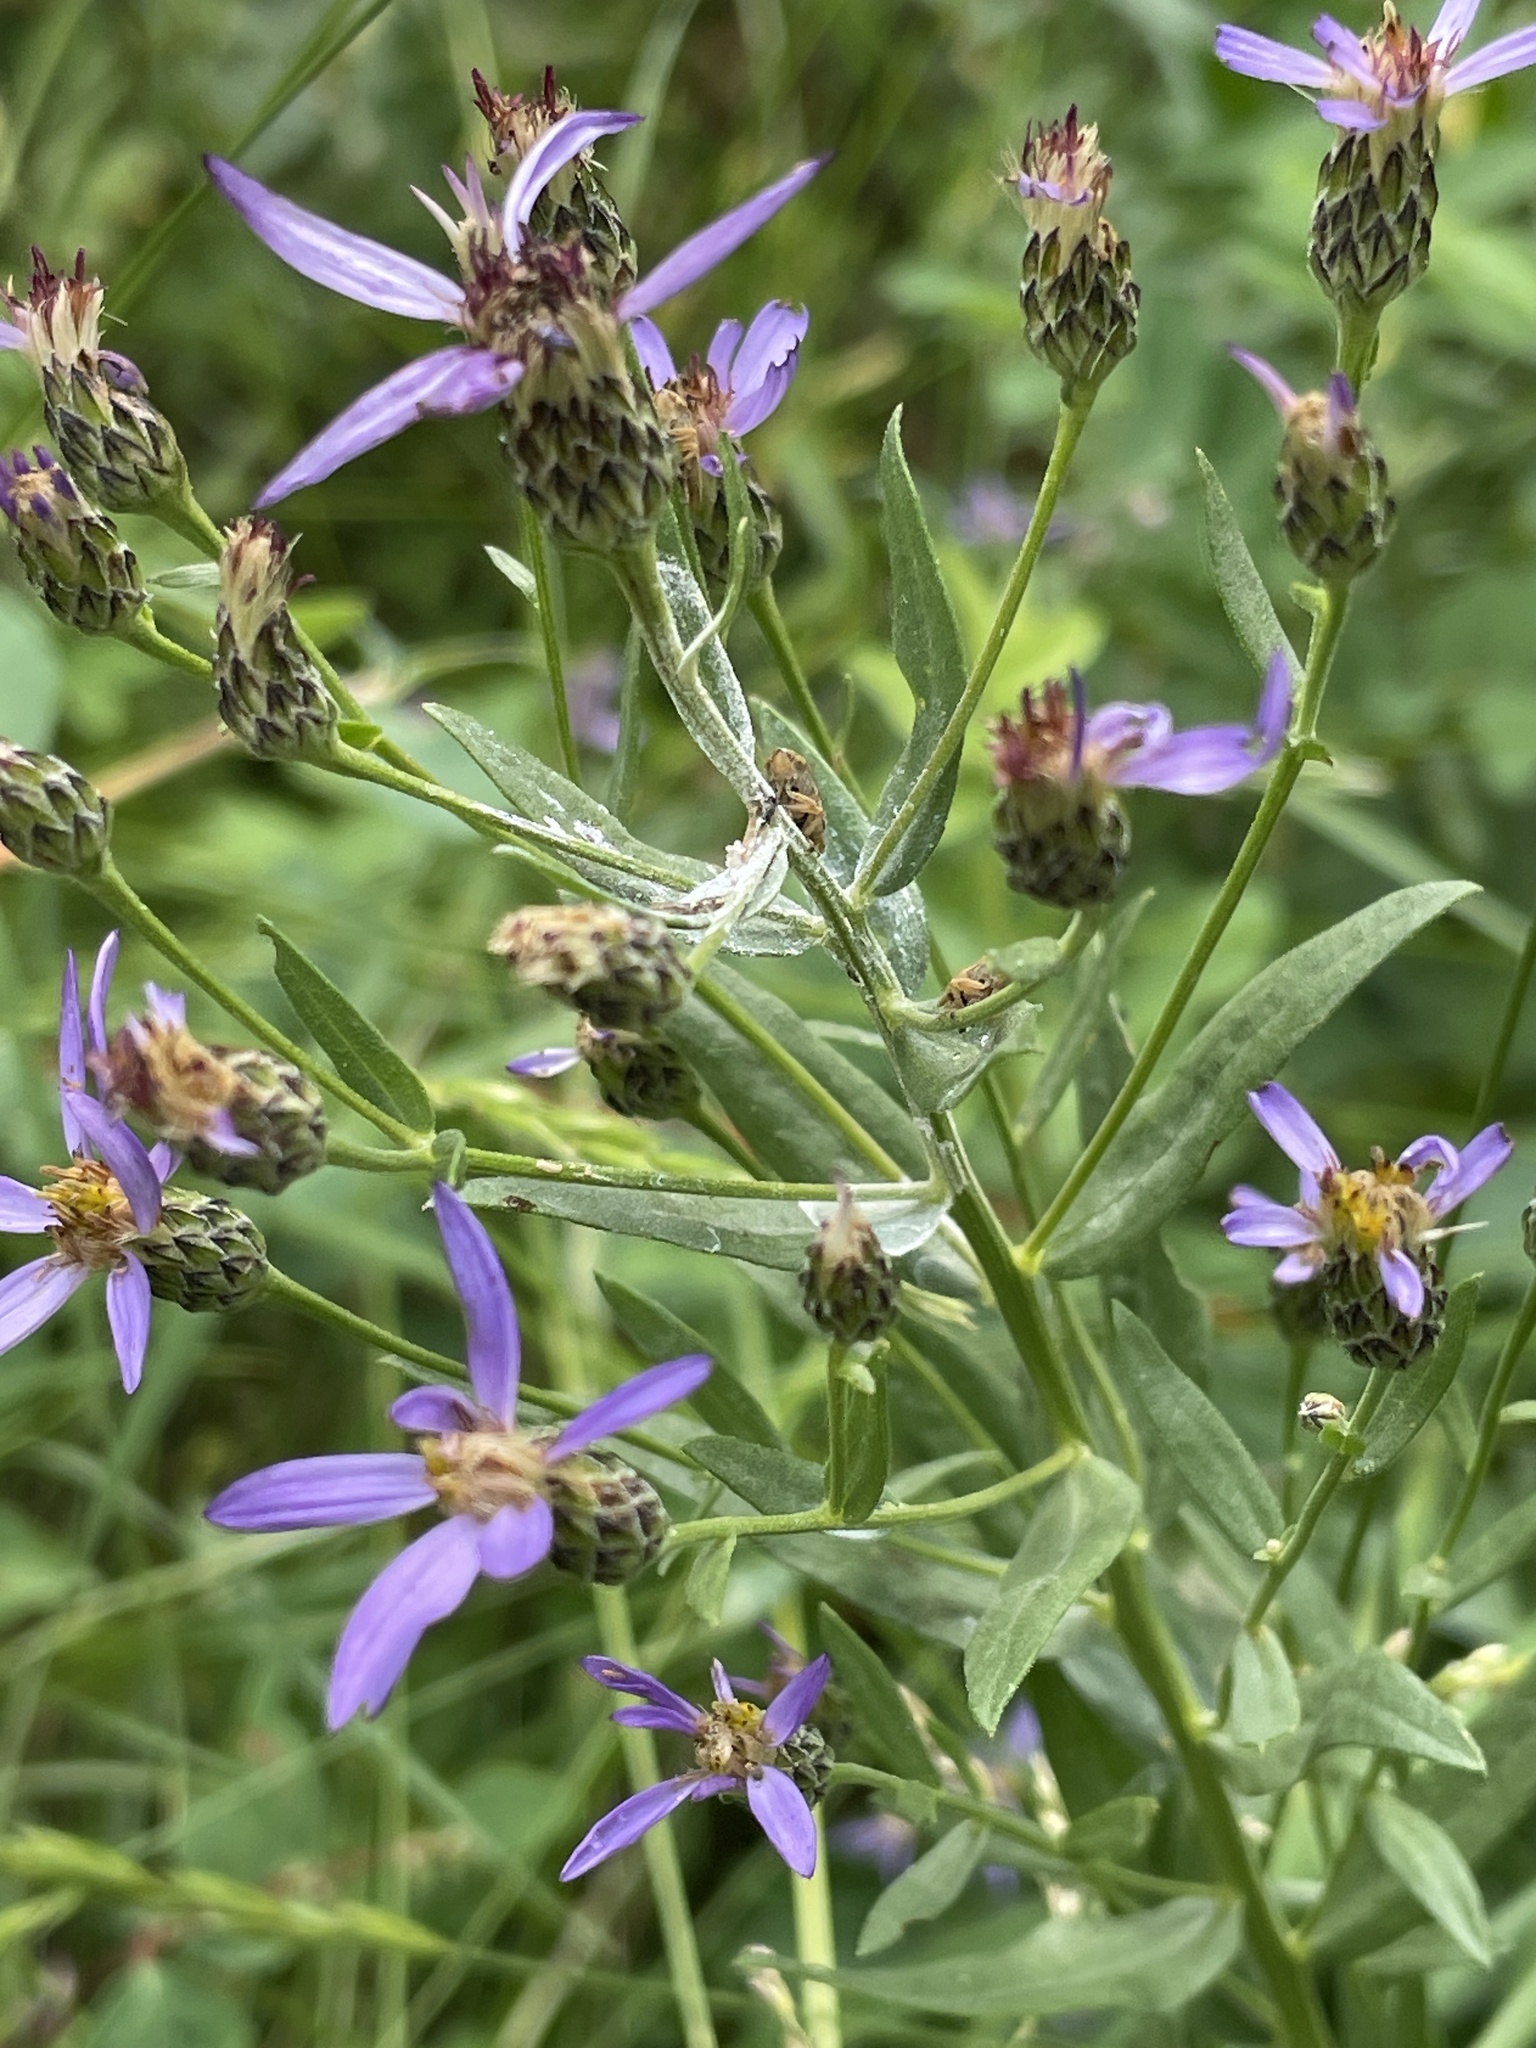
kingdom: Plantae
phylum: Tracheophyta
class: Magnoliopsida
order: Asterales
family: Asteraceae
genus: Doellingeria
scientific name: Doellingeria elegans
